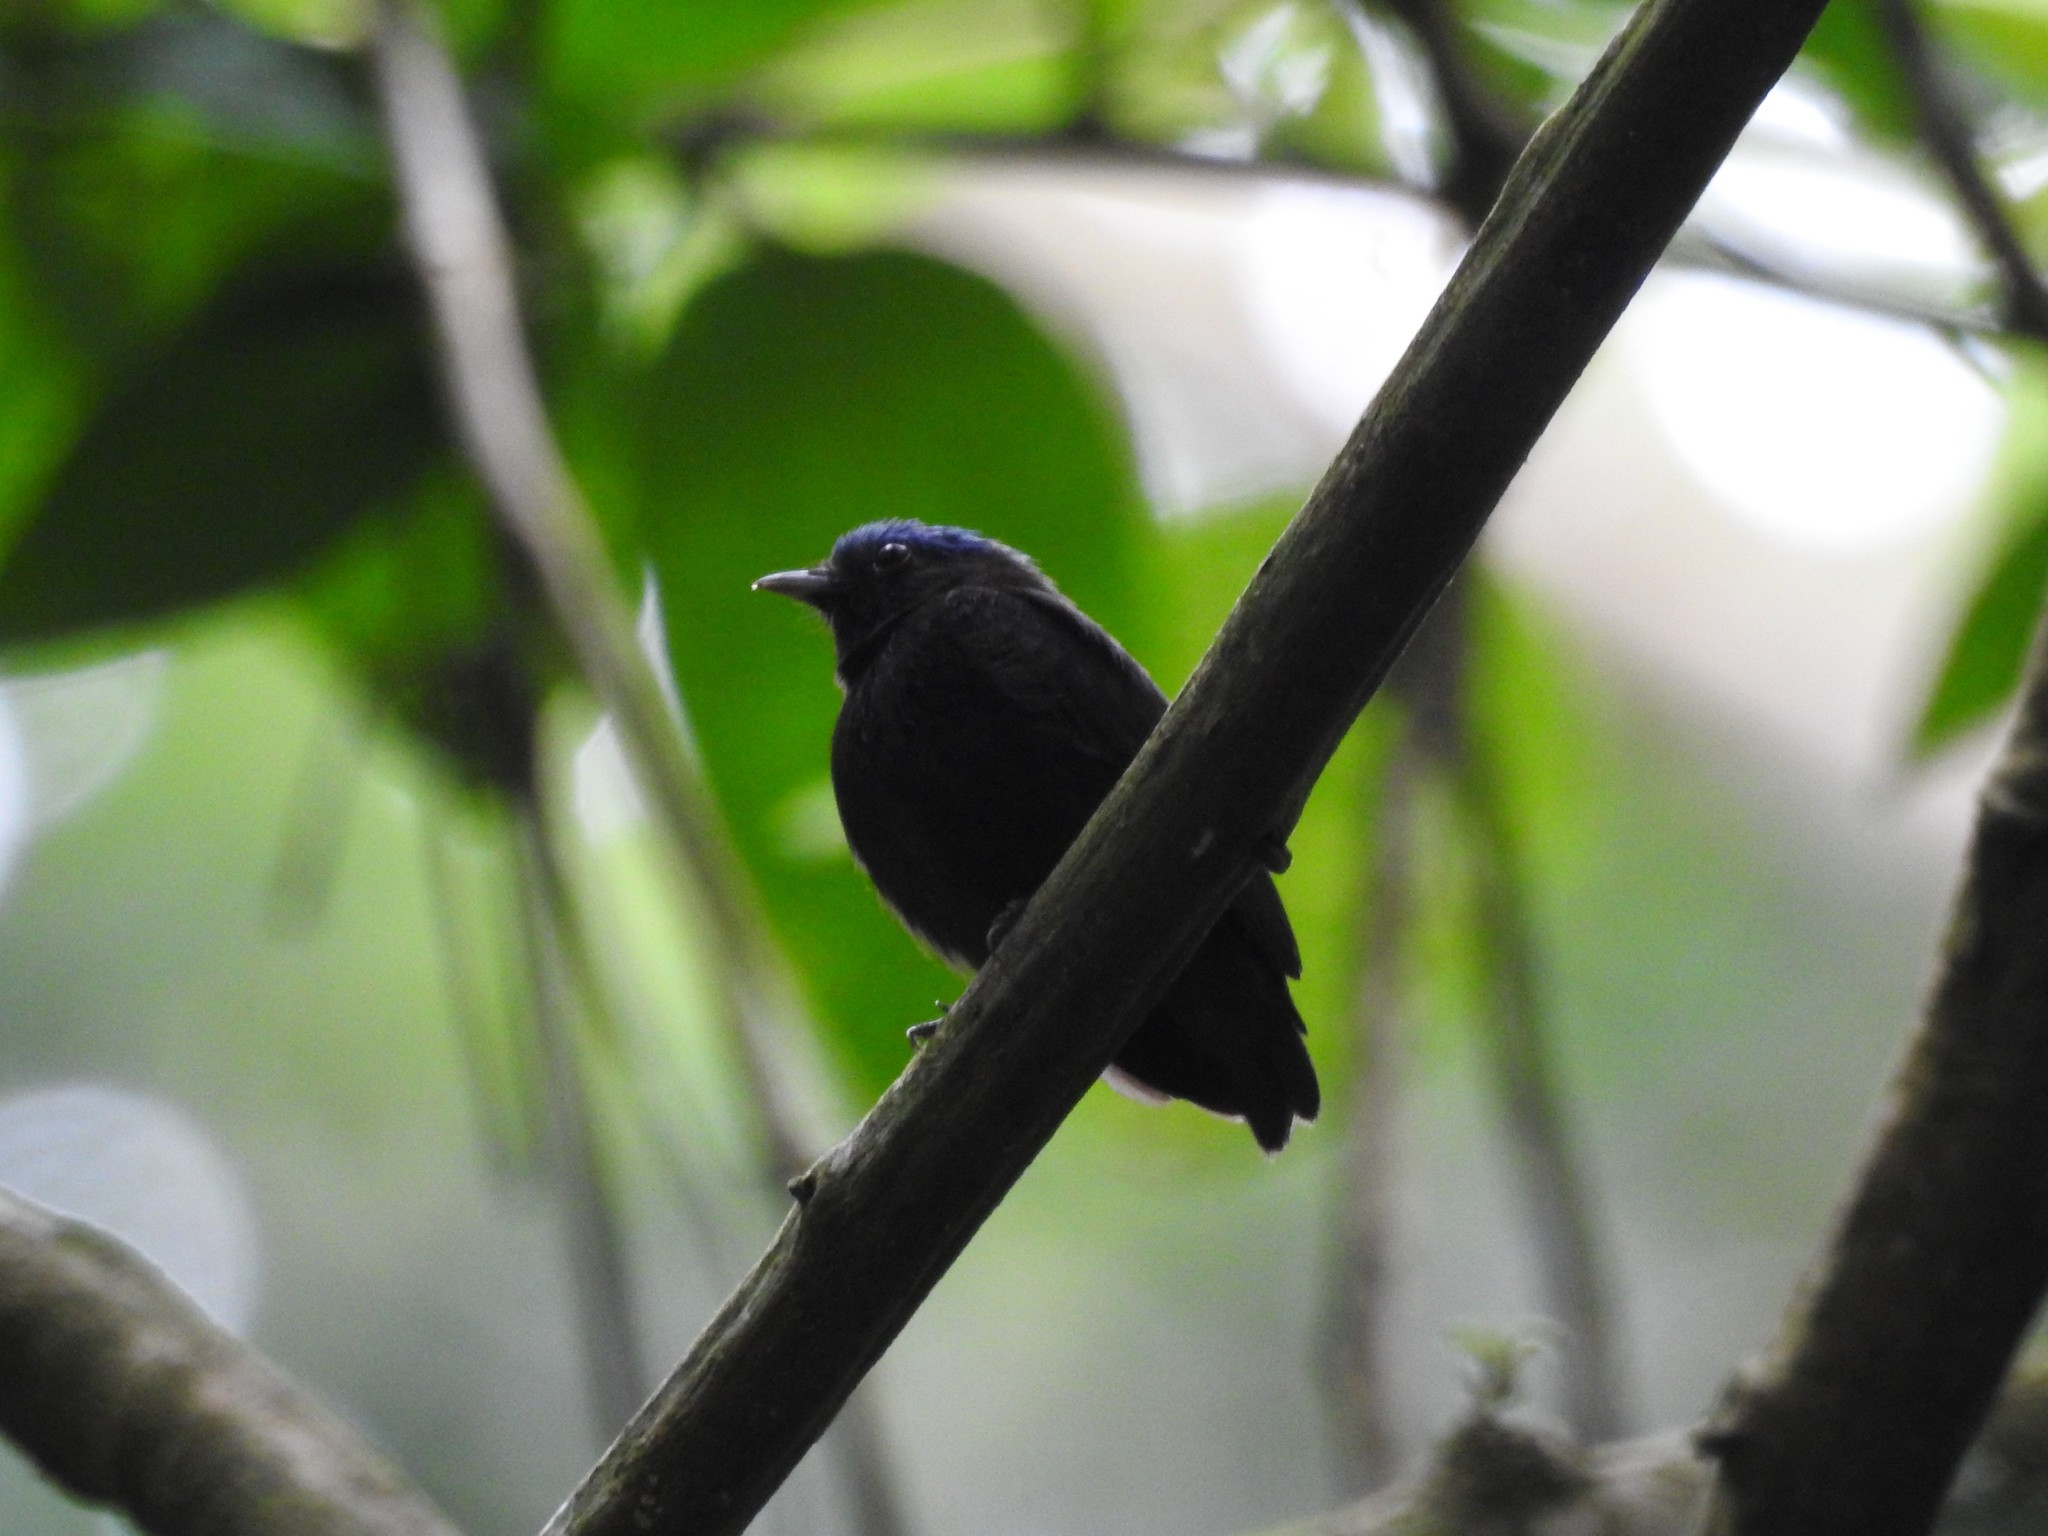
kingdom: Animalia
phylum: Chordata
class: Aves
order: Passeriformes
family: Pipridae
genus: Lepidothrix
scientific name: Lepidothrix coronata
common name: Blue-crowned manakin
